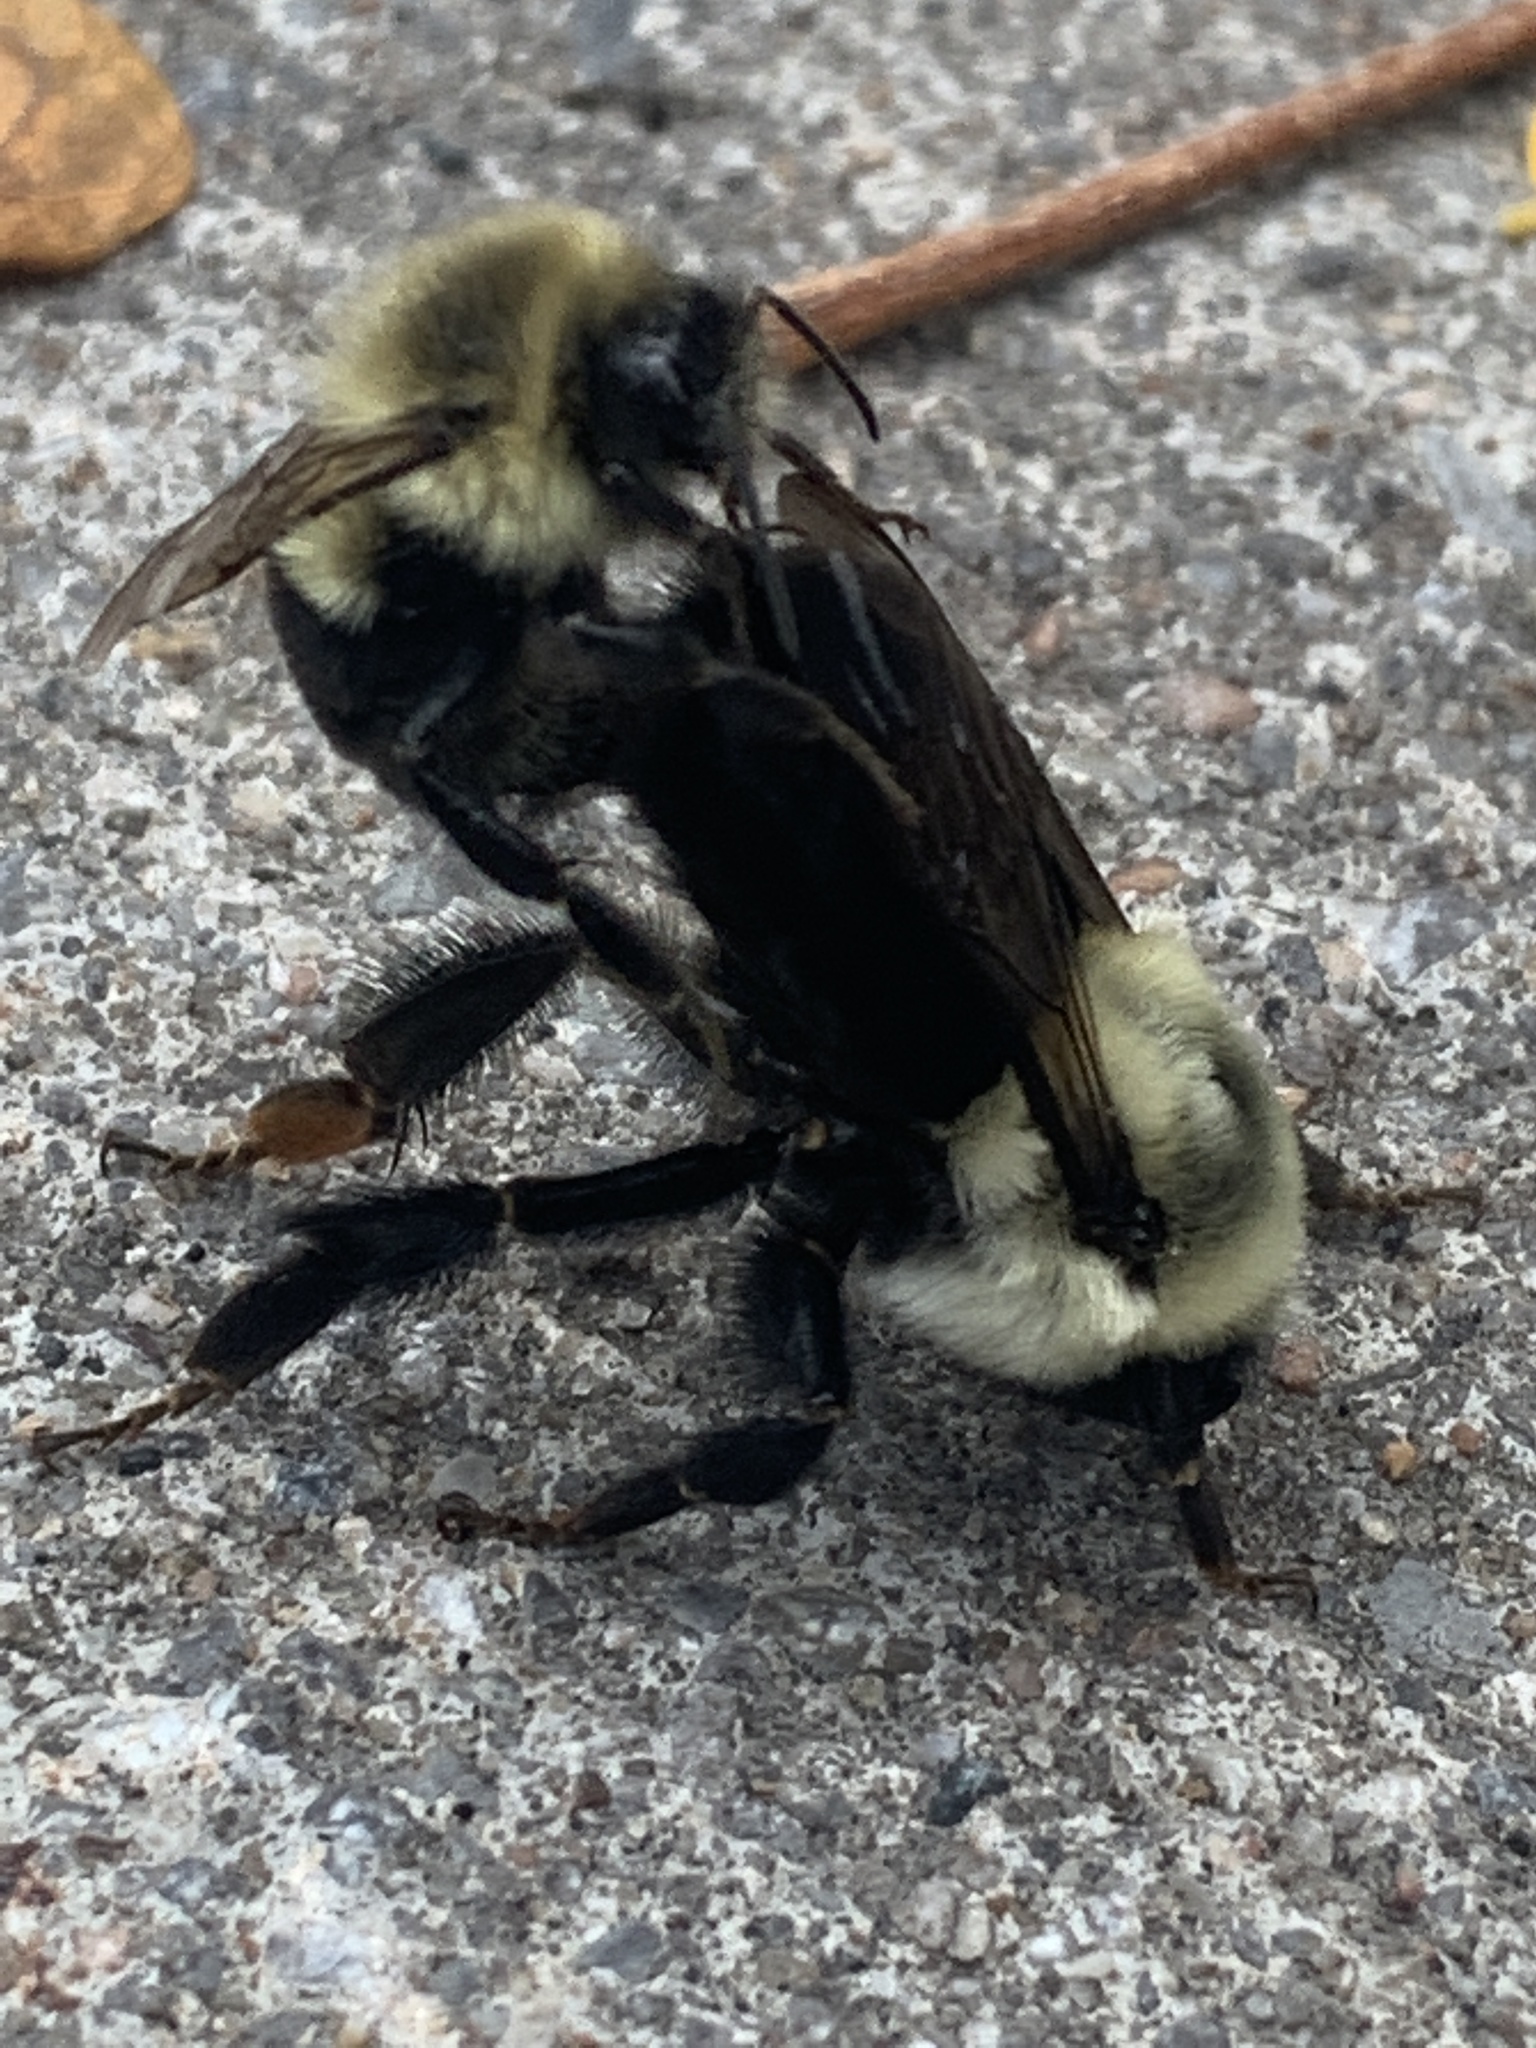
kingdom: Animalia
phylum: Arthropoda
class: Insecta
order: Hymenoptera
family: Apidae
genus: Bombus
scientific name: Bombus impatiens
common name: Common eastern bumble bee
